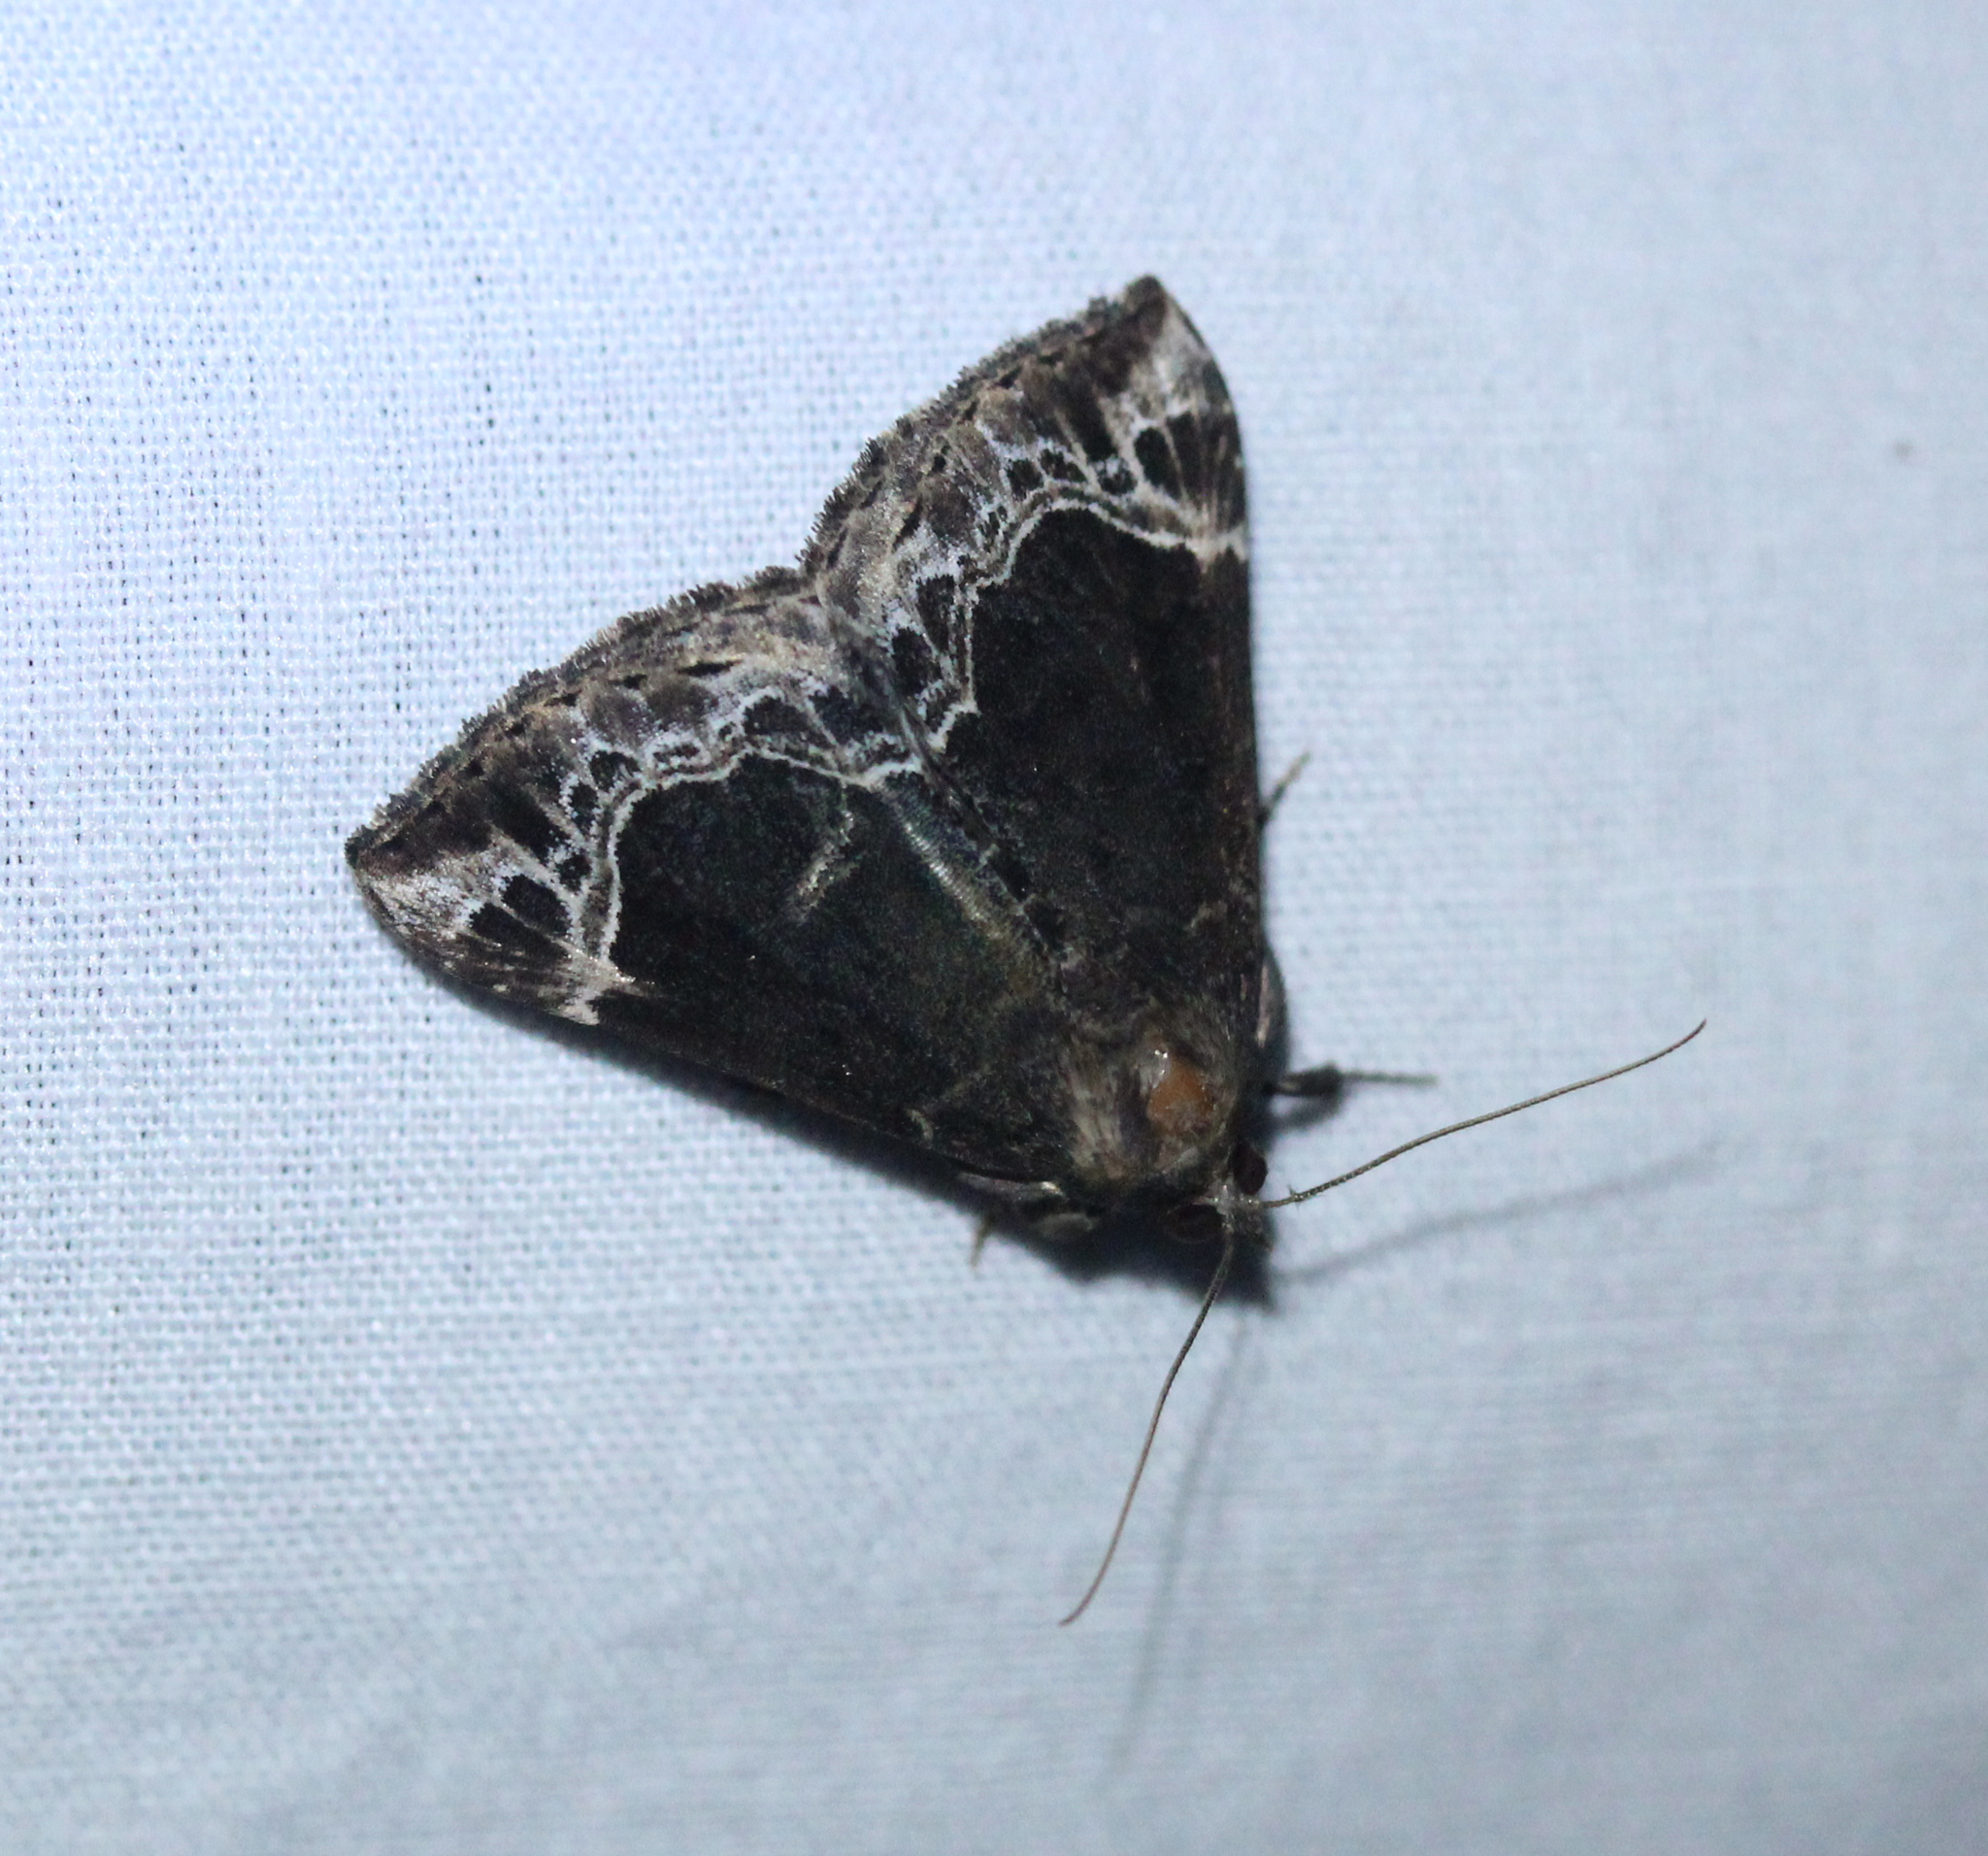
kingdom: Animalia
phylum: Arthropoda
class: Insecta
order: Lepidoptera
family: Erebidae
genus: Hypena
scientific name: Hypena abalienalis
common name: White-lined snout
